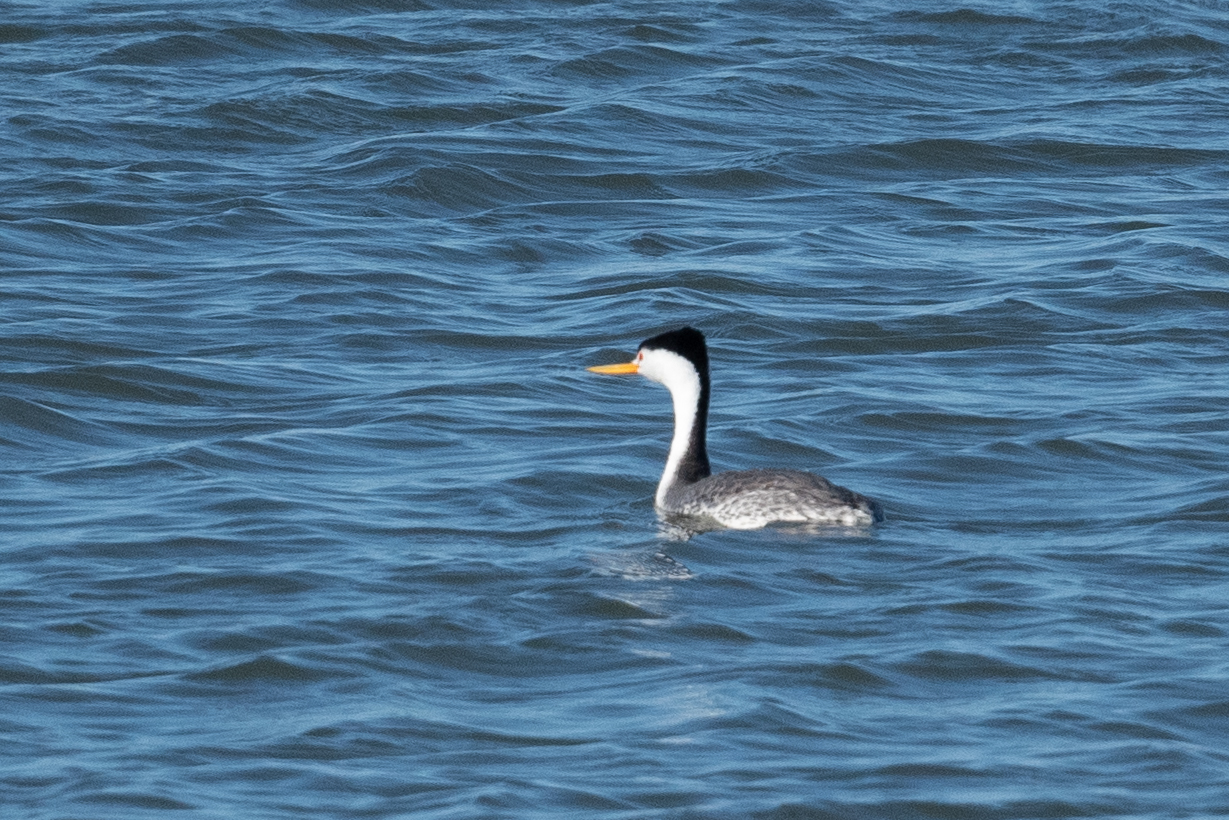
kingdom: Animalia
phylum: Chordata
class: Aves
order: Podicipediformes
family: Podicipedidae
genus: Aechmophorus
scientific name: Aechmophorus clarkii
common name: Clark's grebe
